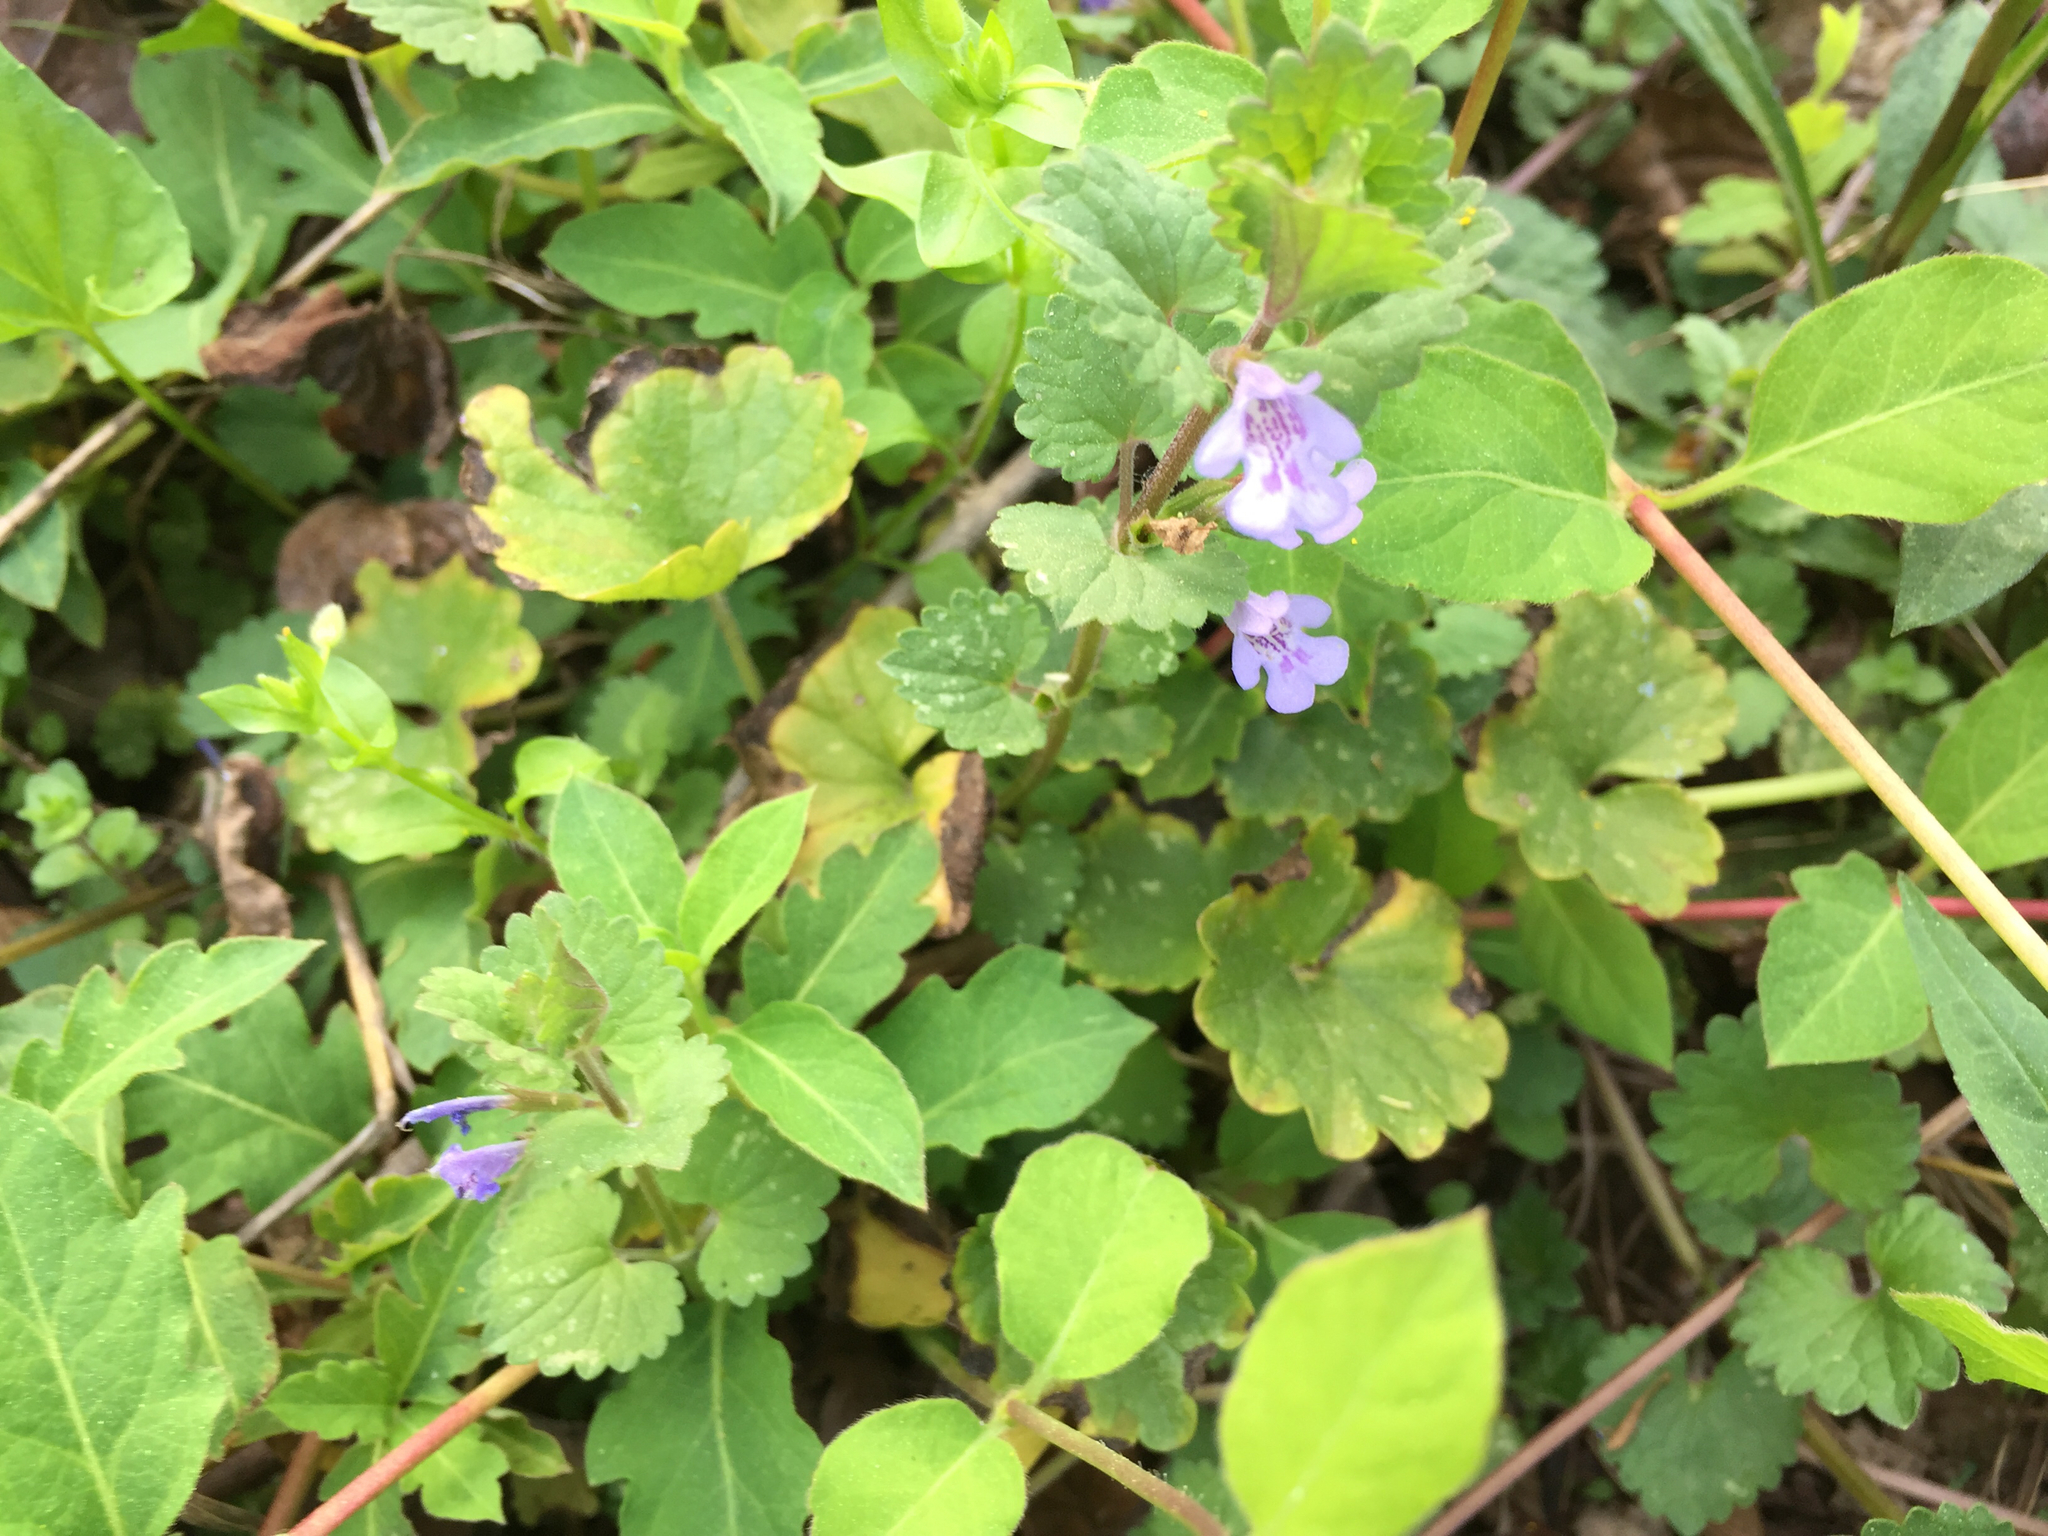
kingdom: Plantae
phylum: Tracheophyta
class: Magnoliopsida
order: Lamiales
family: Lamiaceae
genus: Glechoma
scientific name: Glechoma hederacea
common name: Ground ivy
